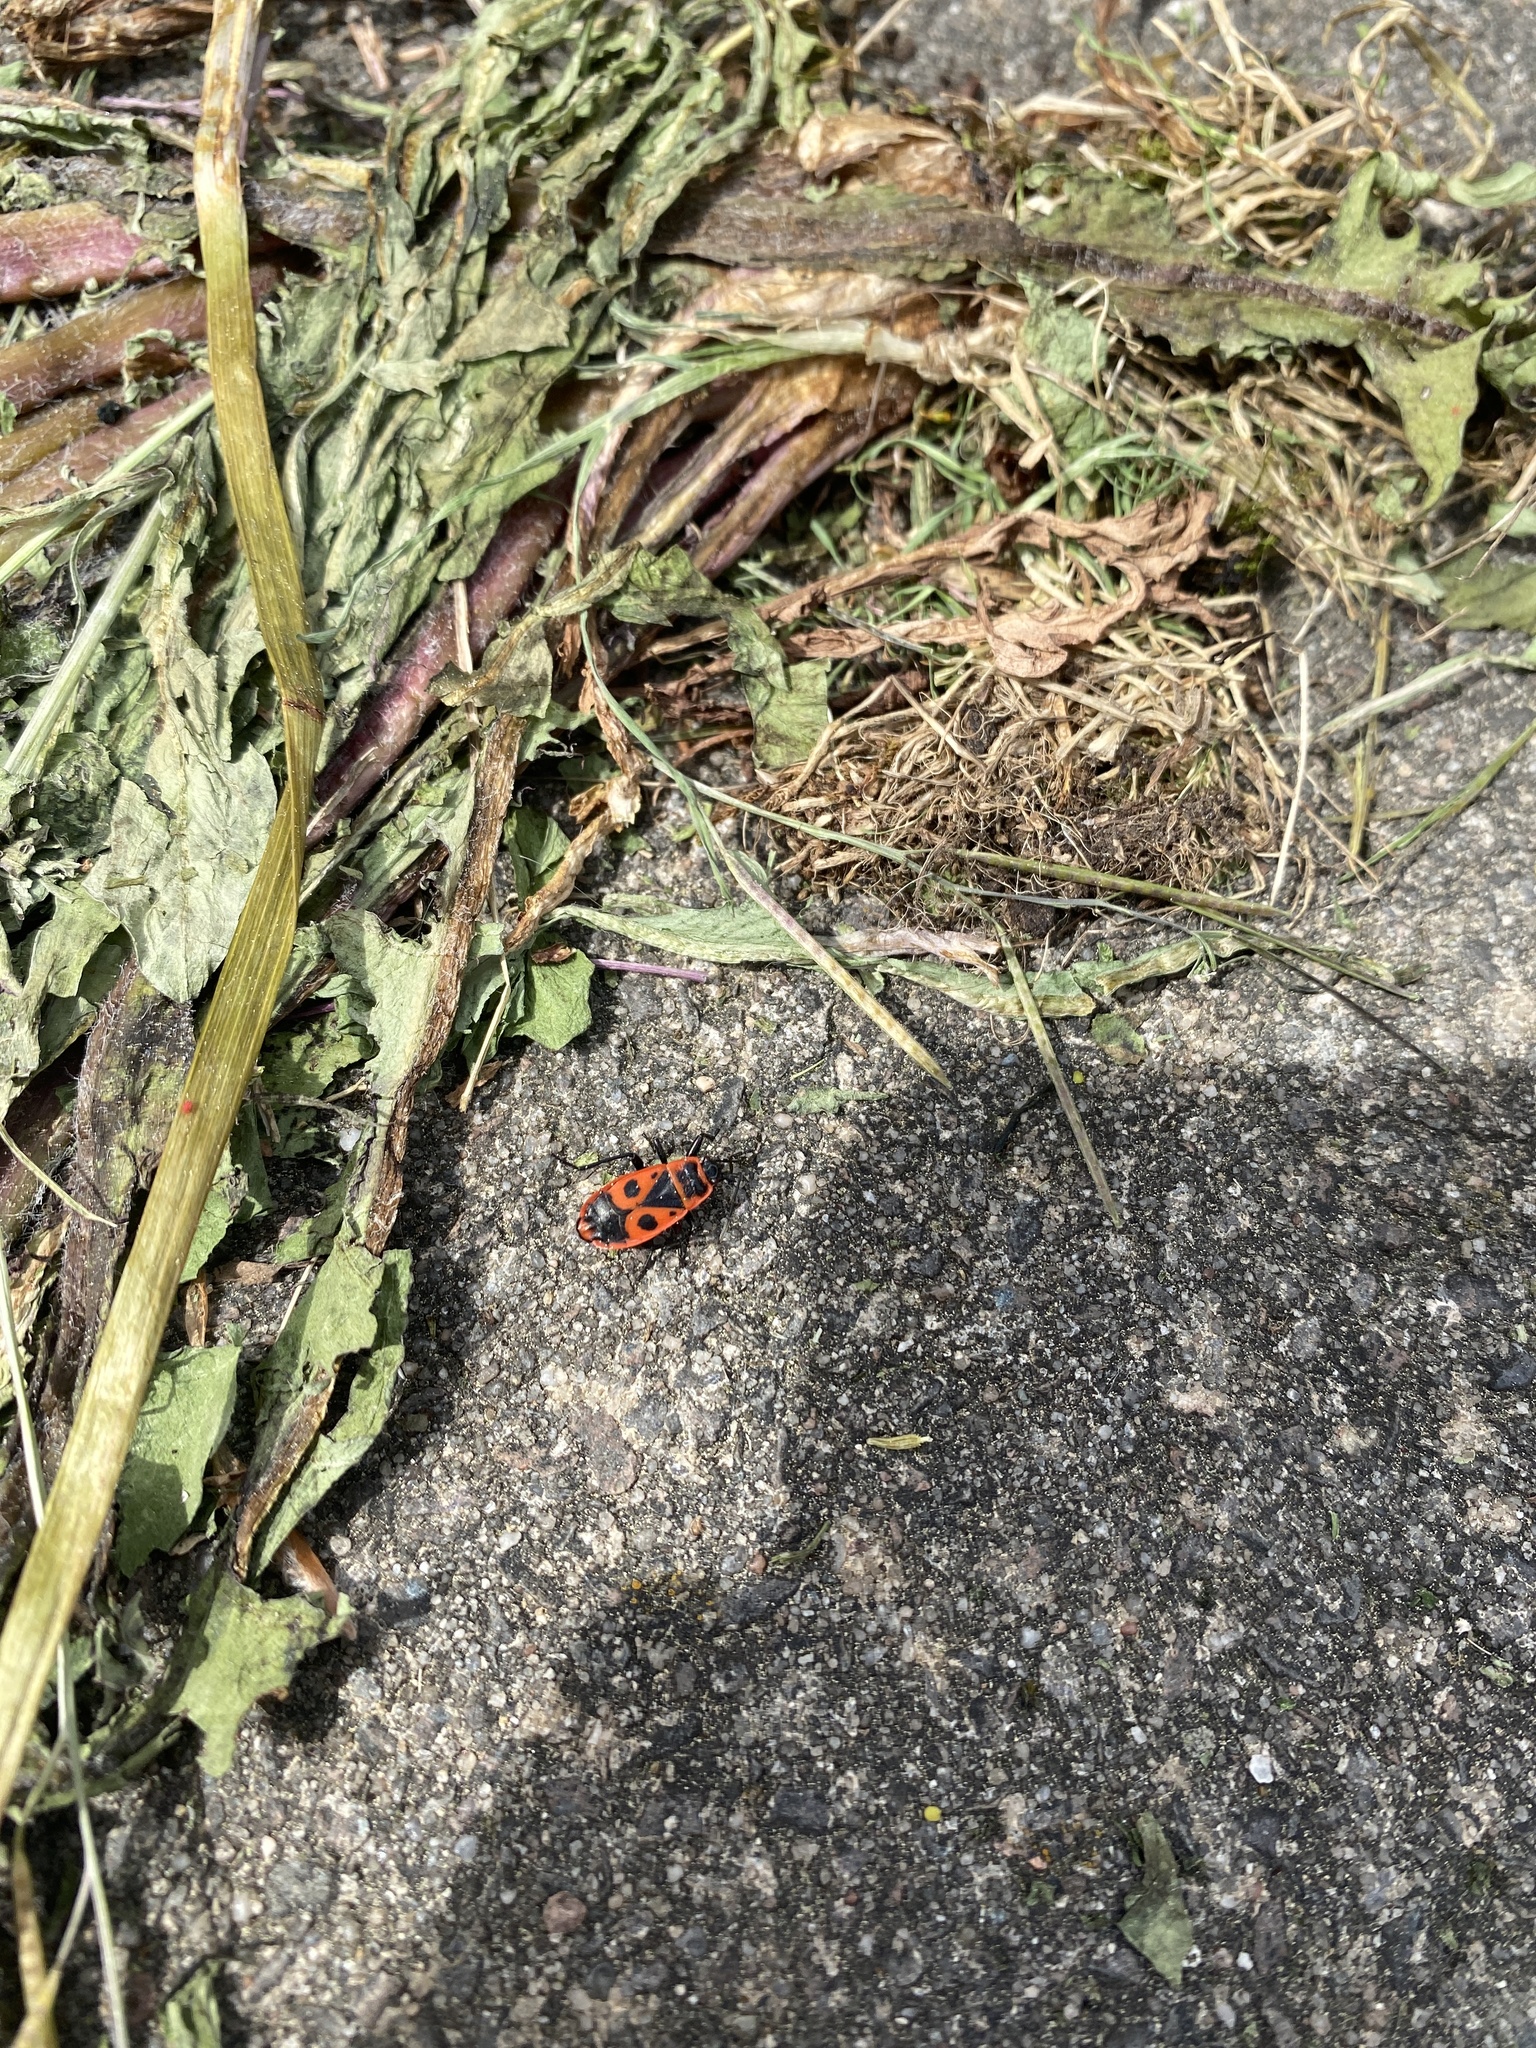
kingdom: Animalia
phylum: Arthropoda
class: Insecta
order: Hemiptera
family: Pyrrhocoridae
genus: Pyrrhocoris
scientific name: Pyrrhocoris apterus
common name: Firebug
